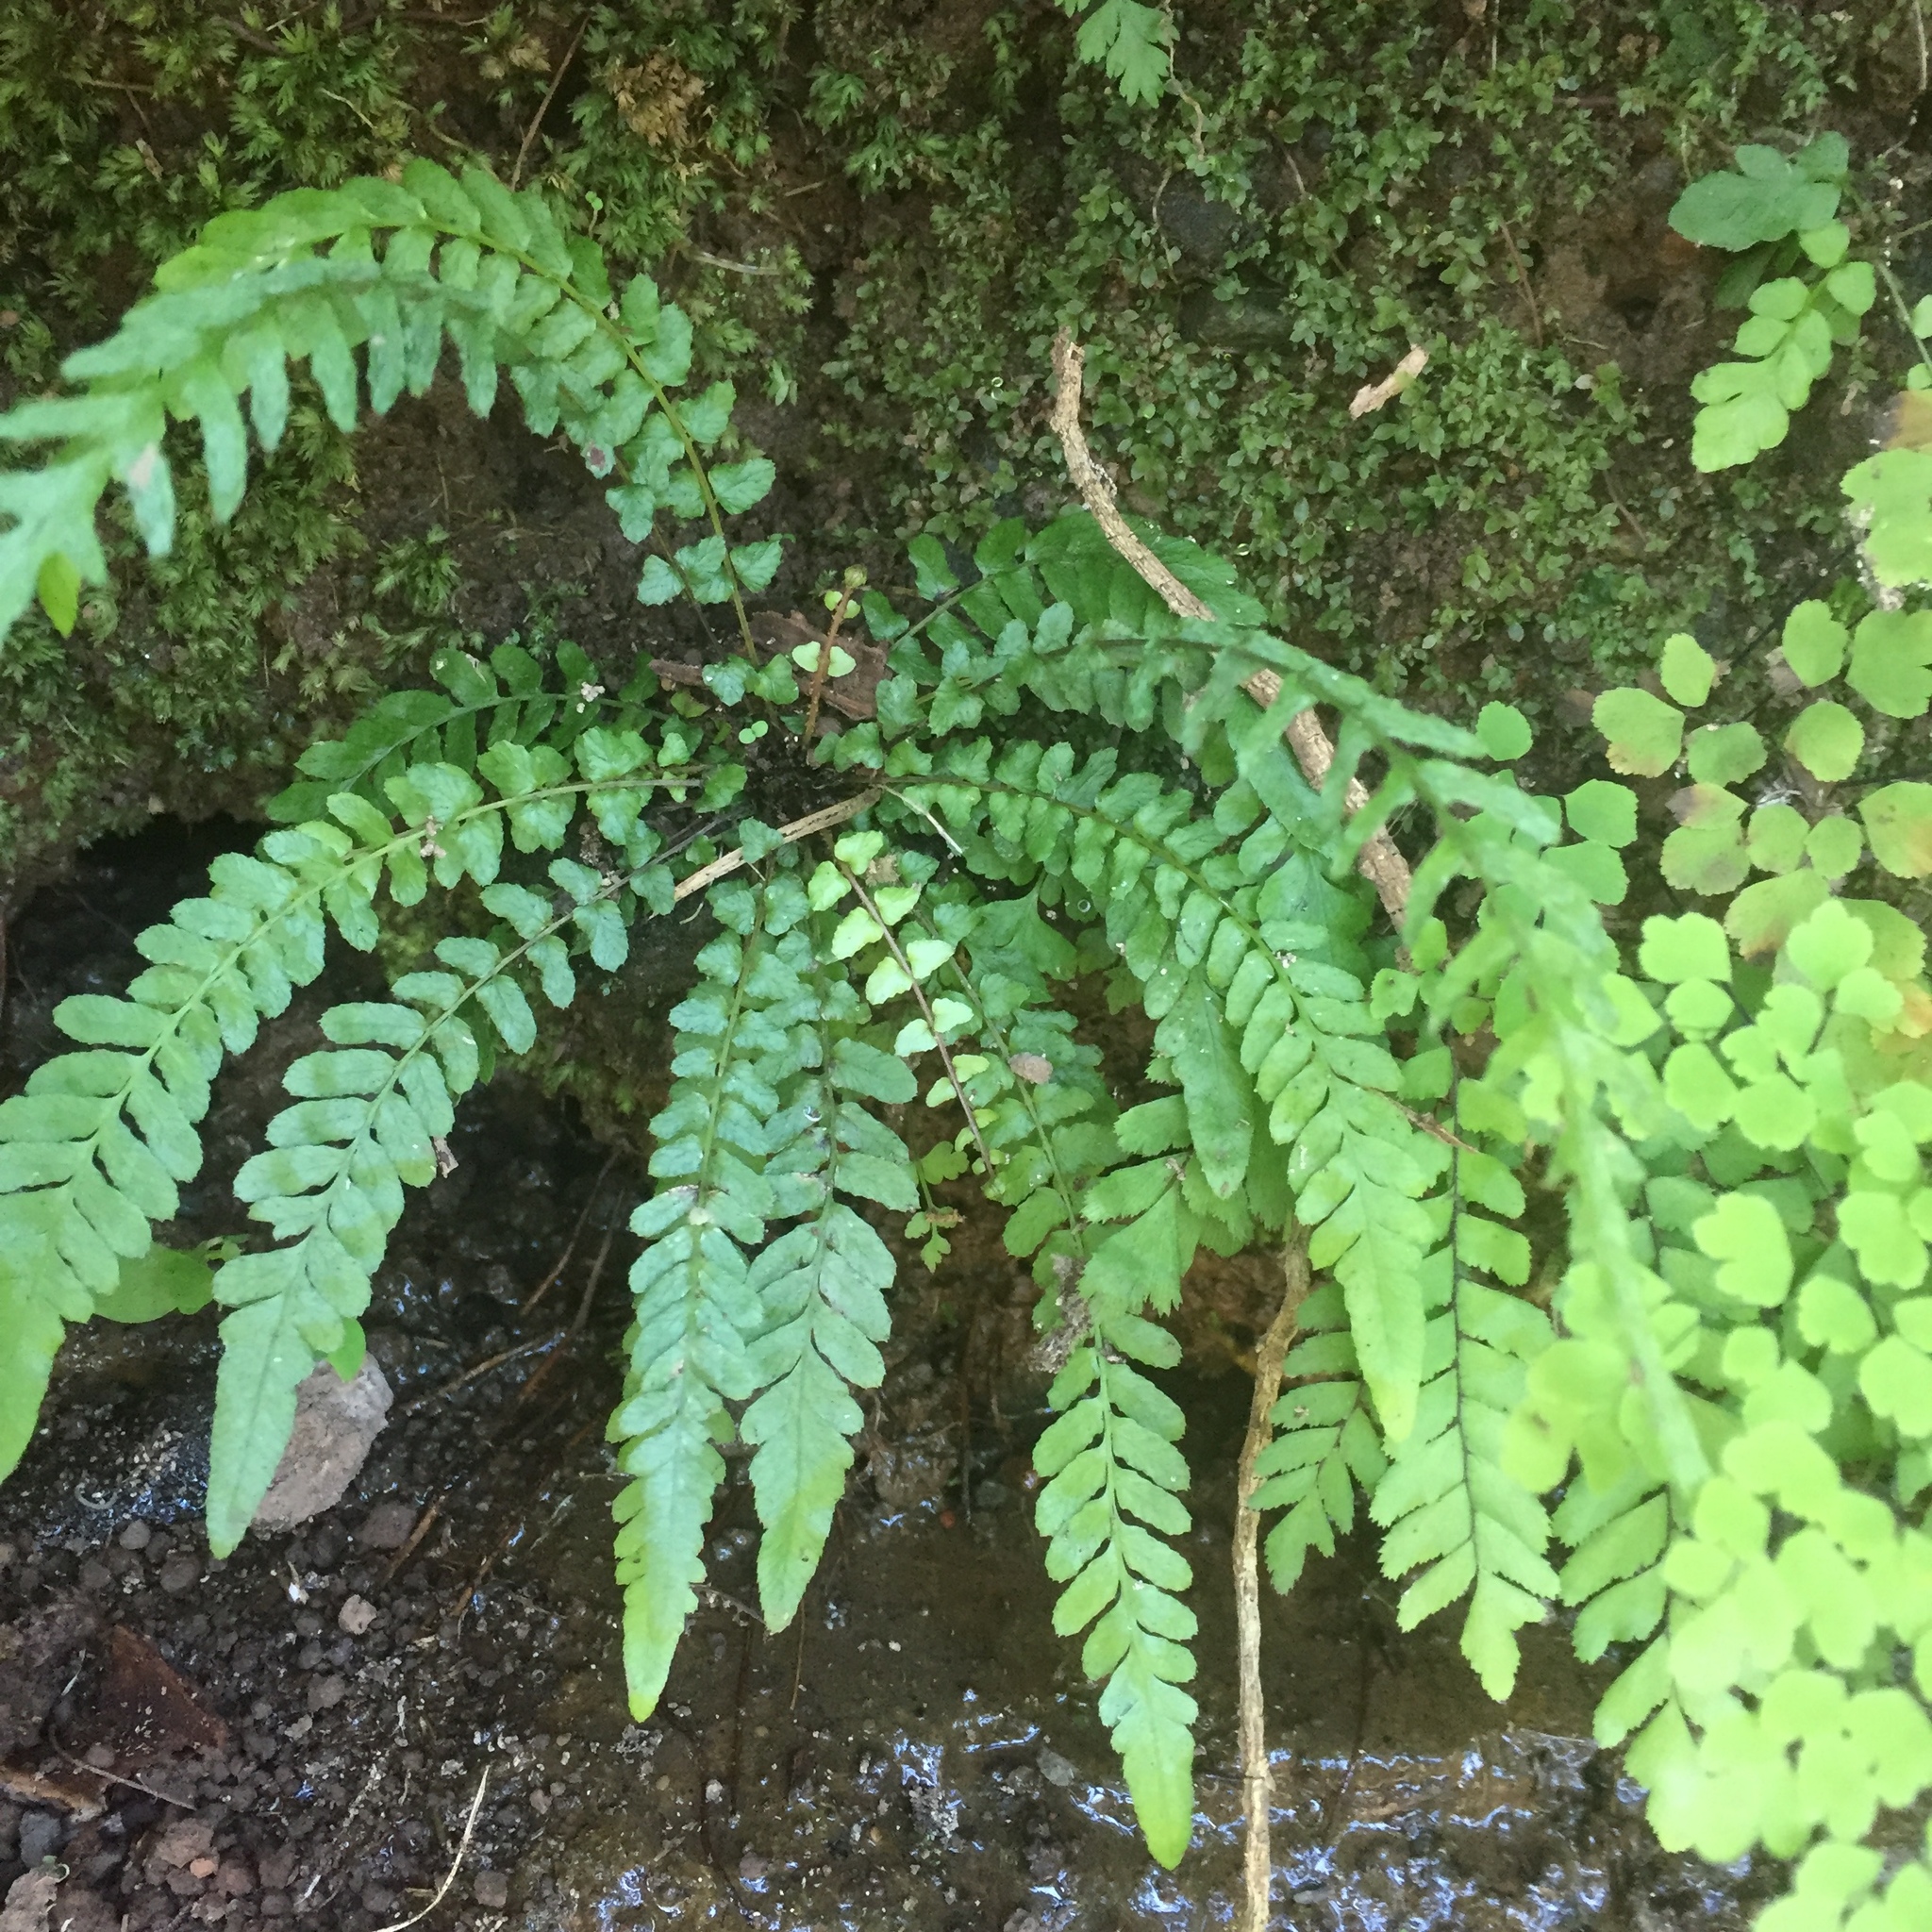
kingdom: Plantae
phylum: Tracheophyta
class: Polypodiopsida
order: Polypodiales
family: Blechnaceae
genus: Doodia
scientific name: Doodia caudata
